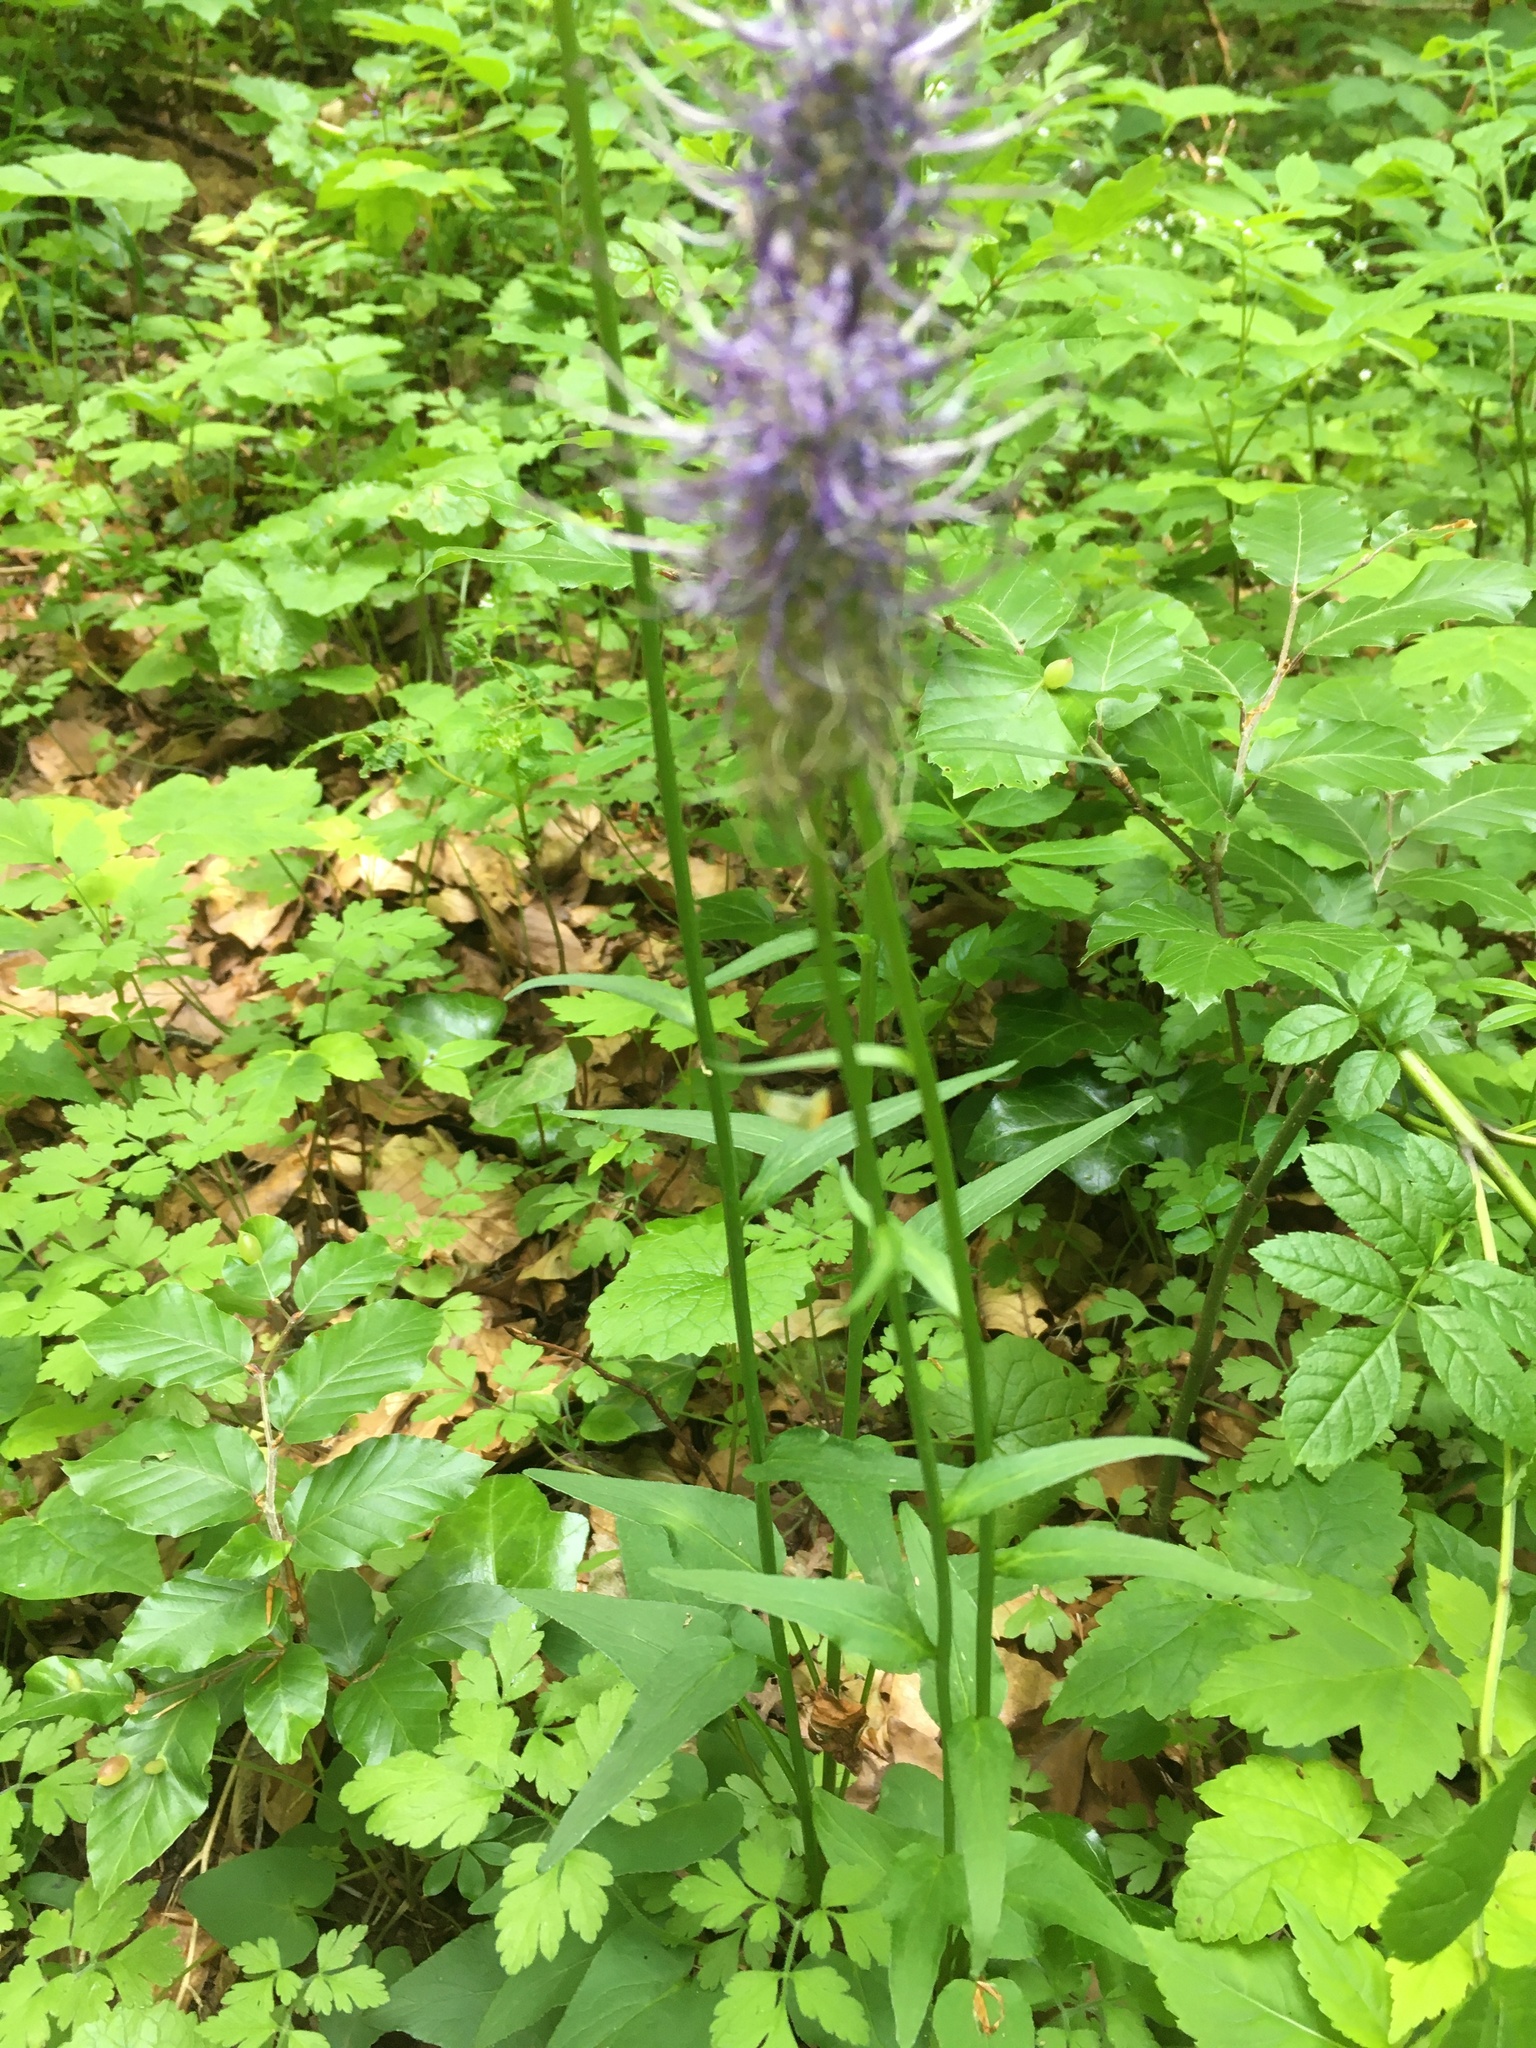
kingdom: Plantae
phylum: Tracheophyta
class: Magnoliopsida
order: Asterales
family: Campanulaceae
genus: Phyteuma
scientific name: Phyteuma nigrum
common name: Black rampion
